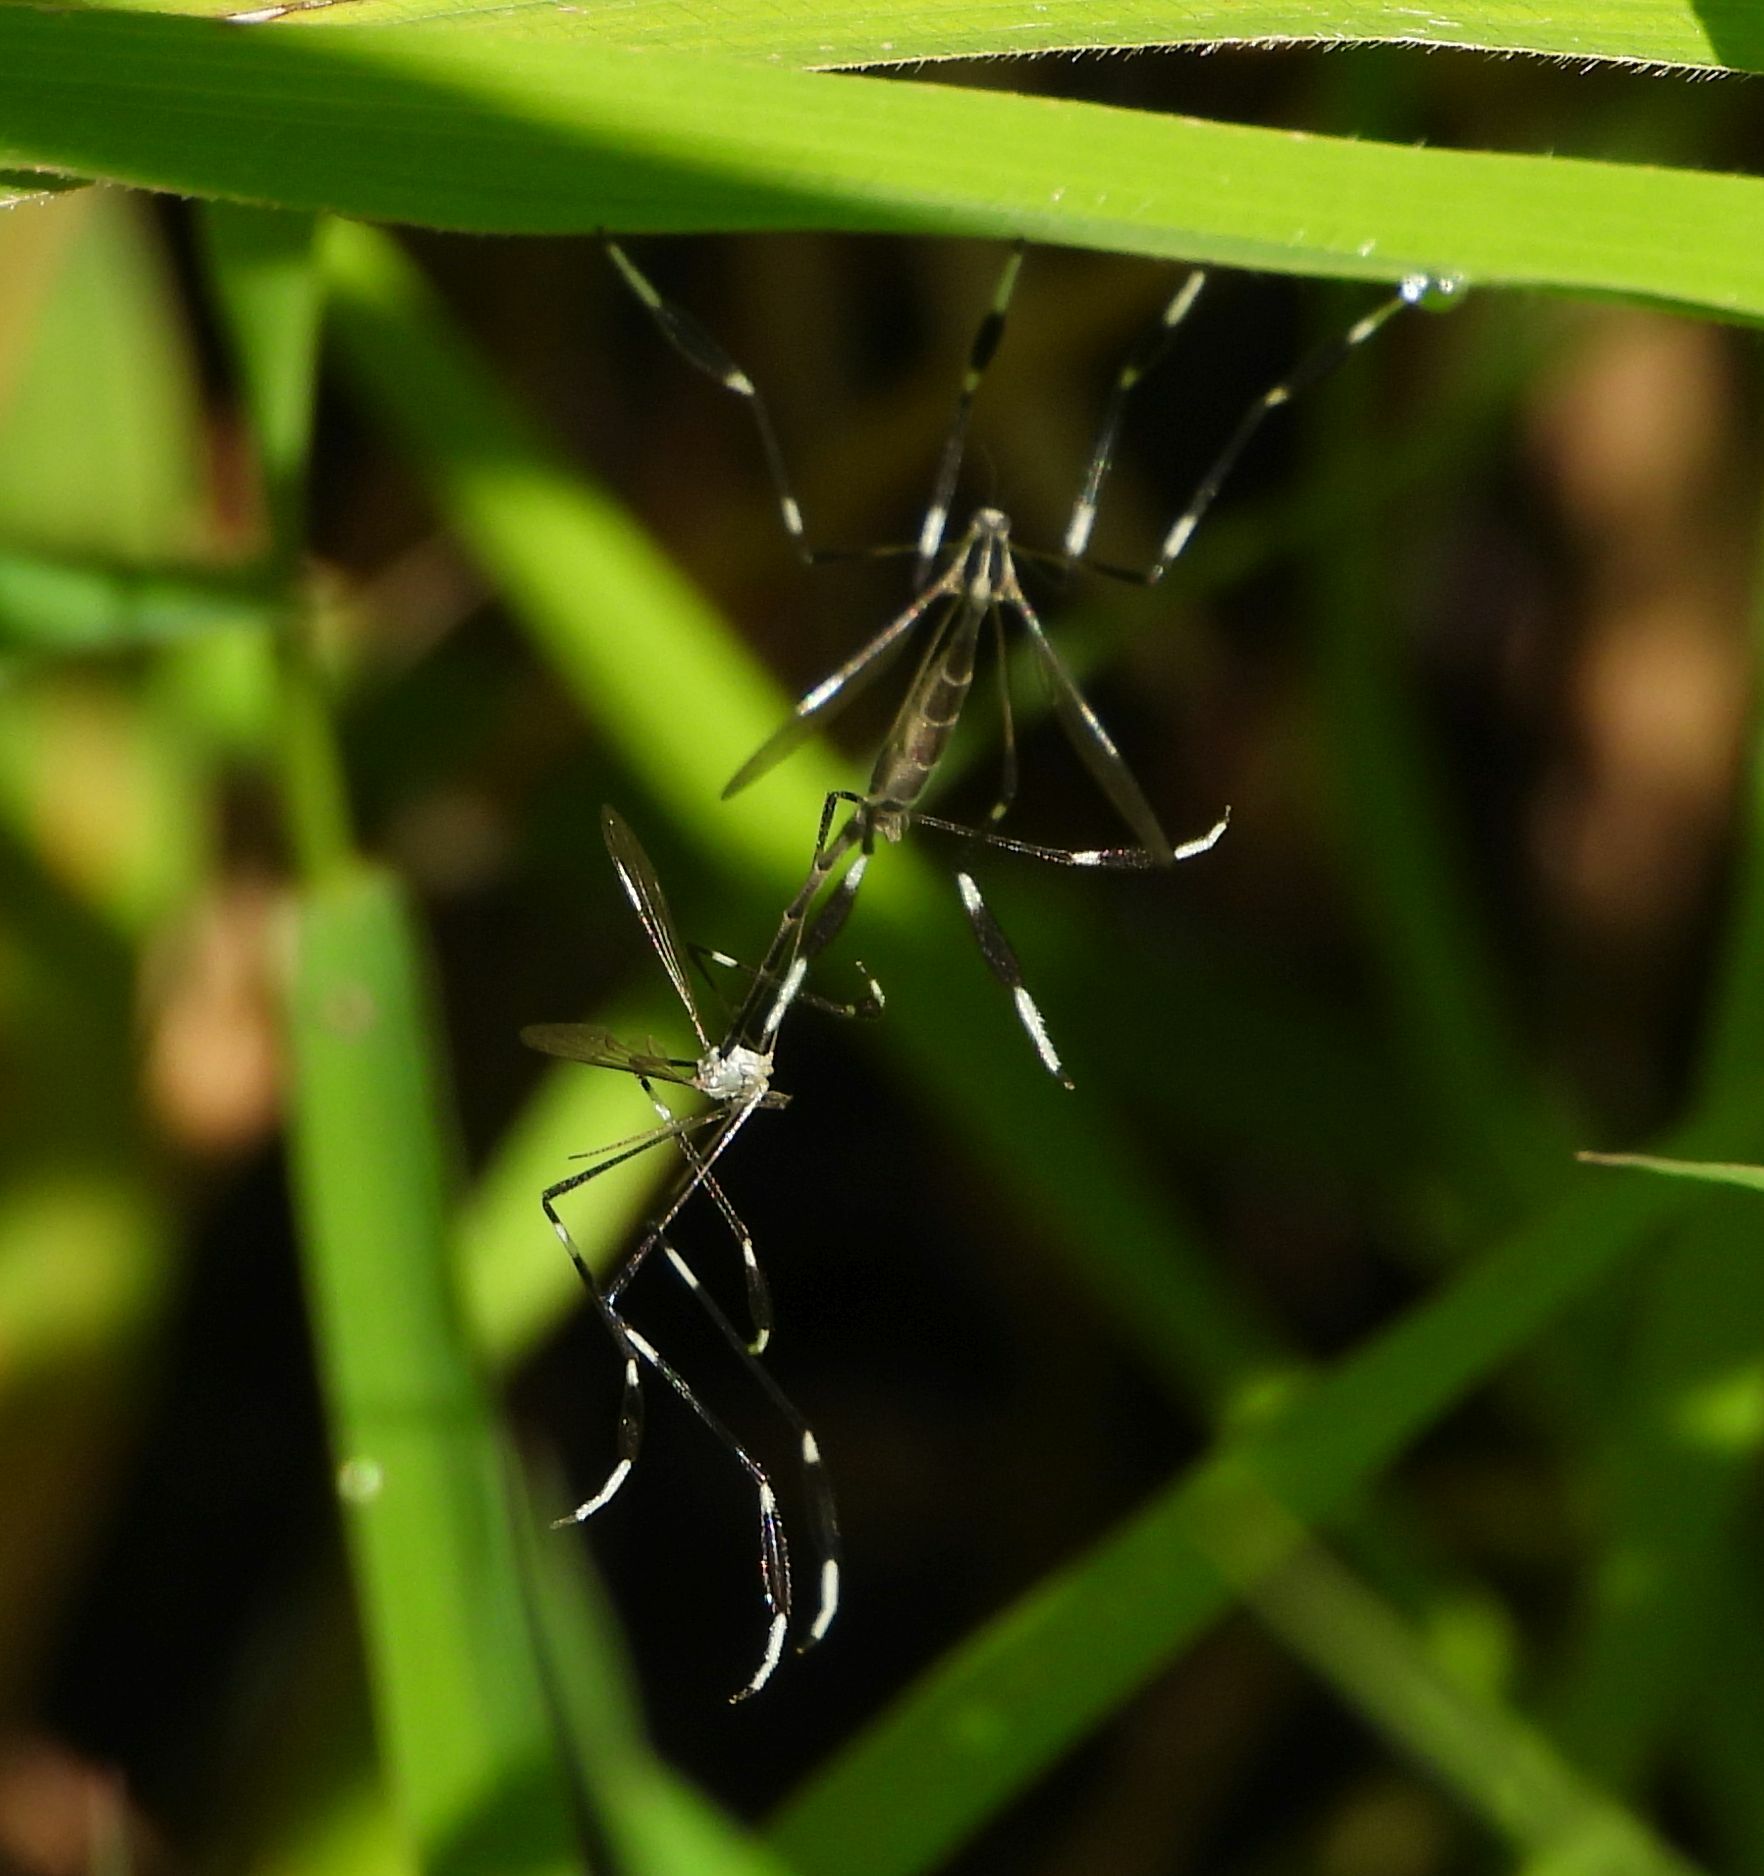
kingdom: Animalia
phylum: Arthropoda
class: Insecta
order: Diptera
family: Ptychopteridae
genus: Bittacomorpha
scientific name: Bittacomorpha clavipes
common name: Eastern phantom crane fly
